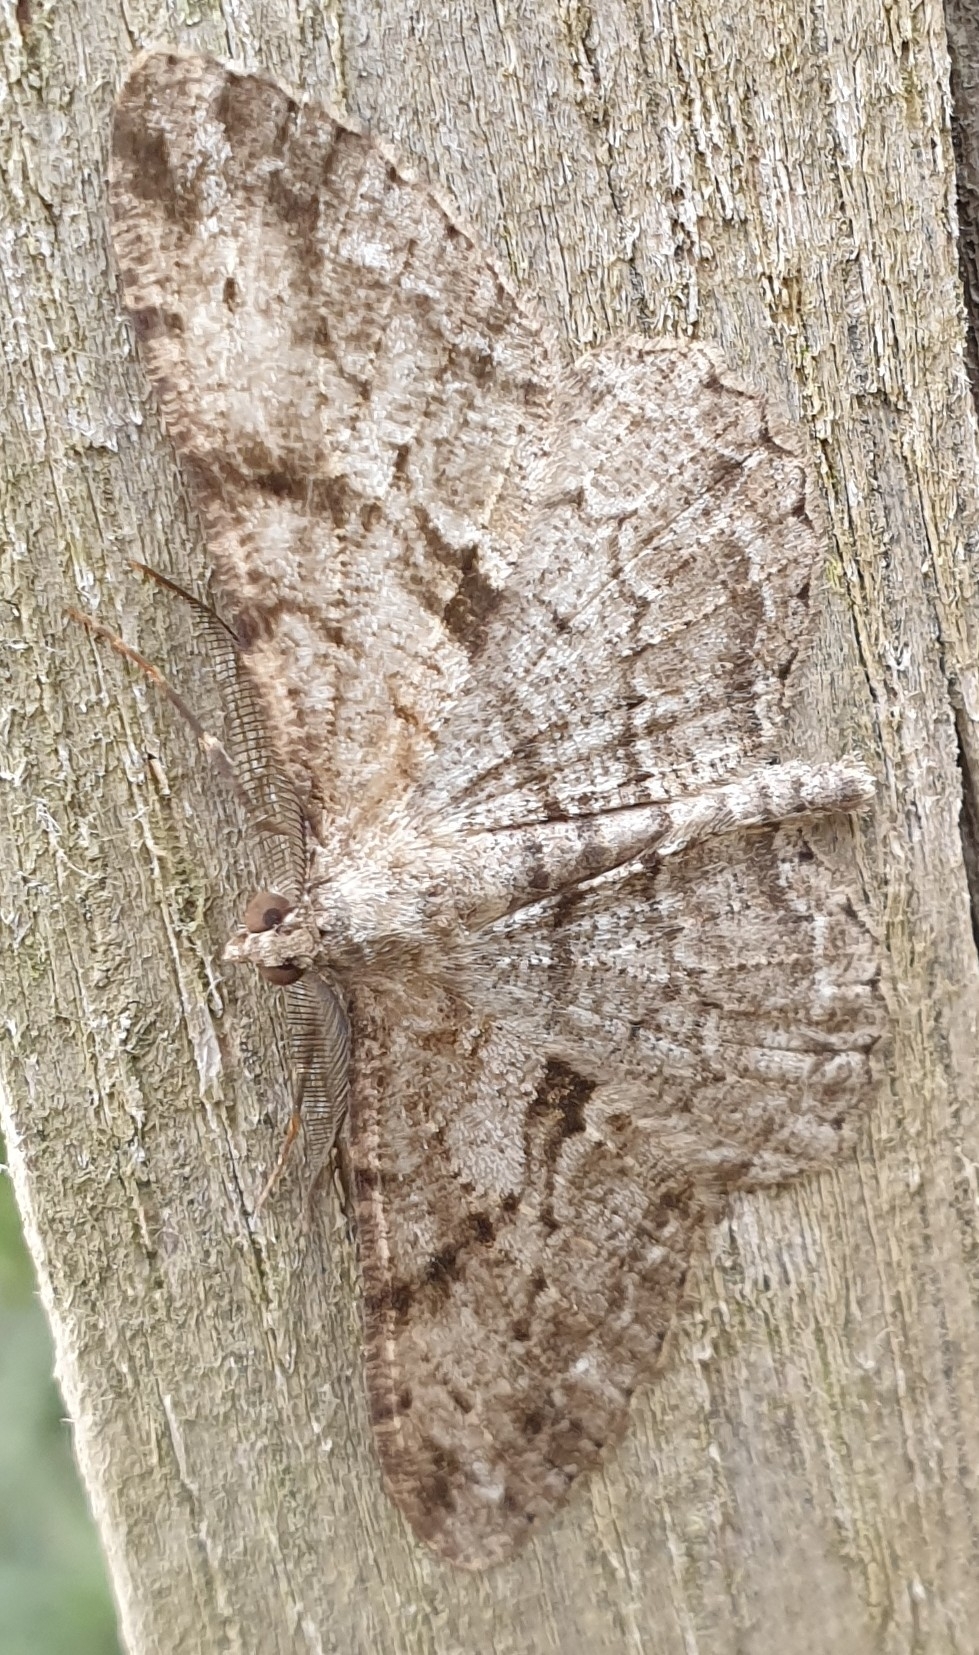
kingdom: Animalia
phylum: Arthropoda
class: Insecta
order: Lepidoptera
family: Geometridae
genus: Peribatodes
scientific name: Peribatodes rhomboidaria
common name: Willow beauty
